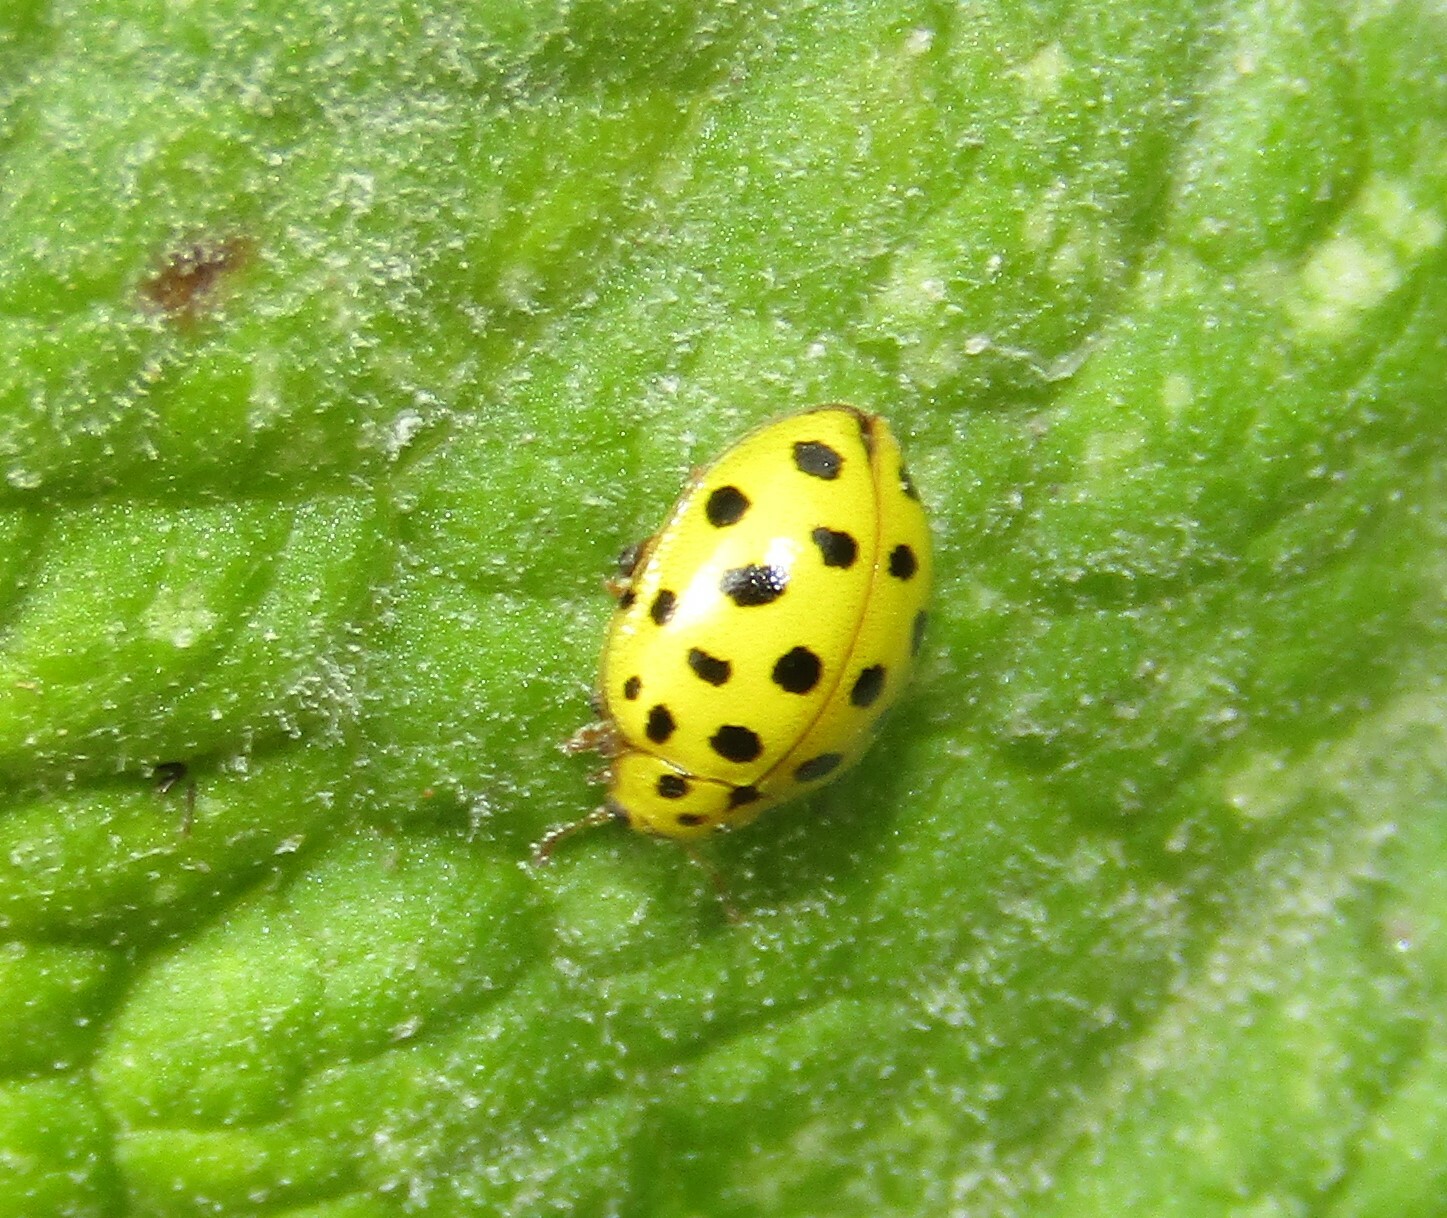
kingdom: Animalia
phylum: Arthropoda
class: Insecta
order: Coleoptera
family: Coccinellidae
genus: Psyllobora
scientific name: Psyllobora vigintiduopunctata
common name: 22-spot ladybird
